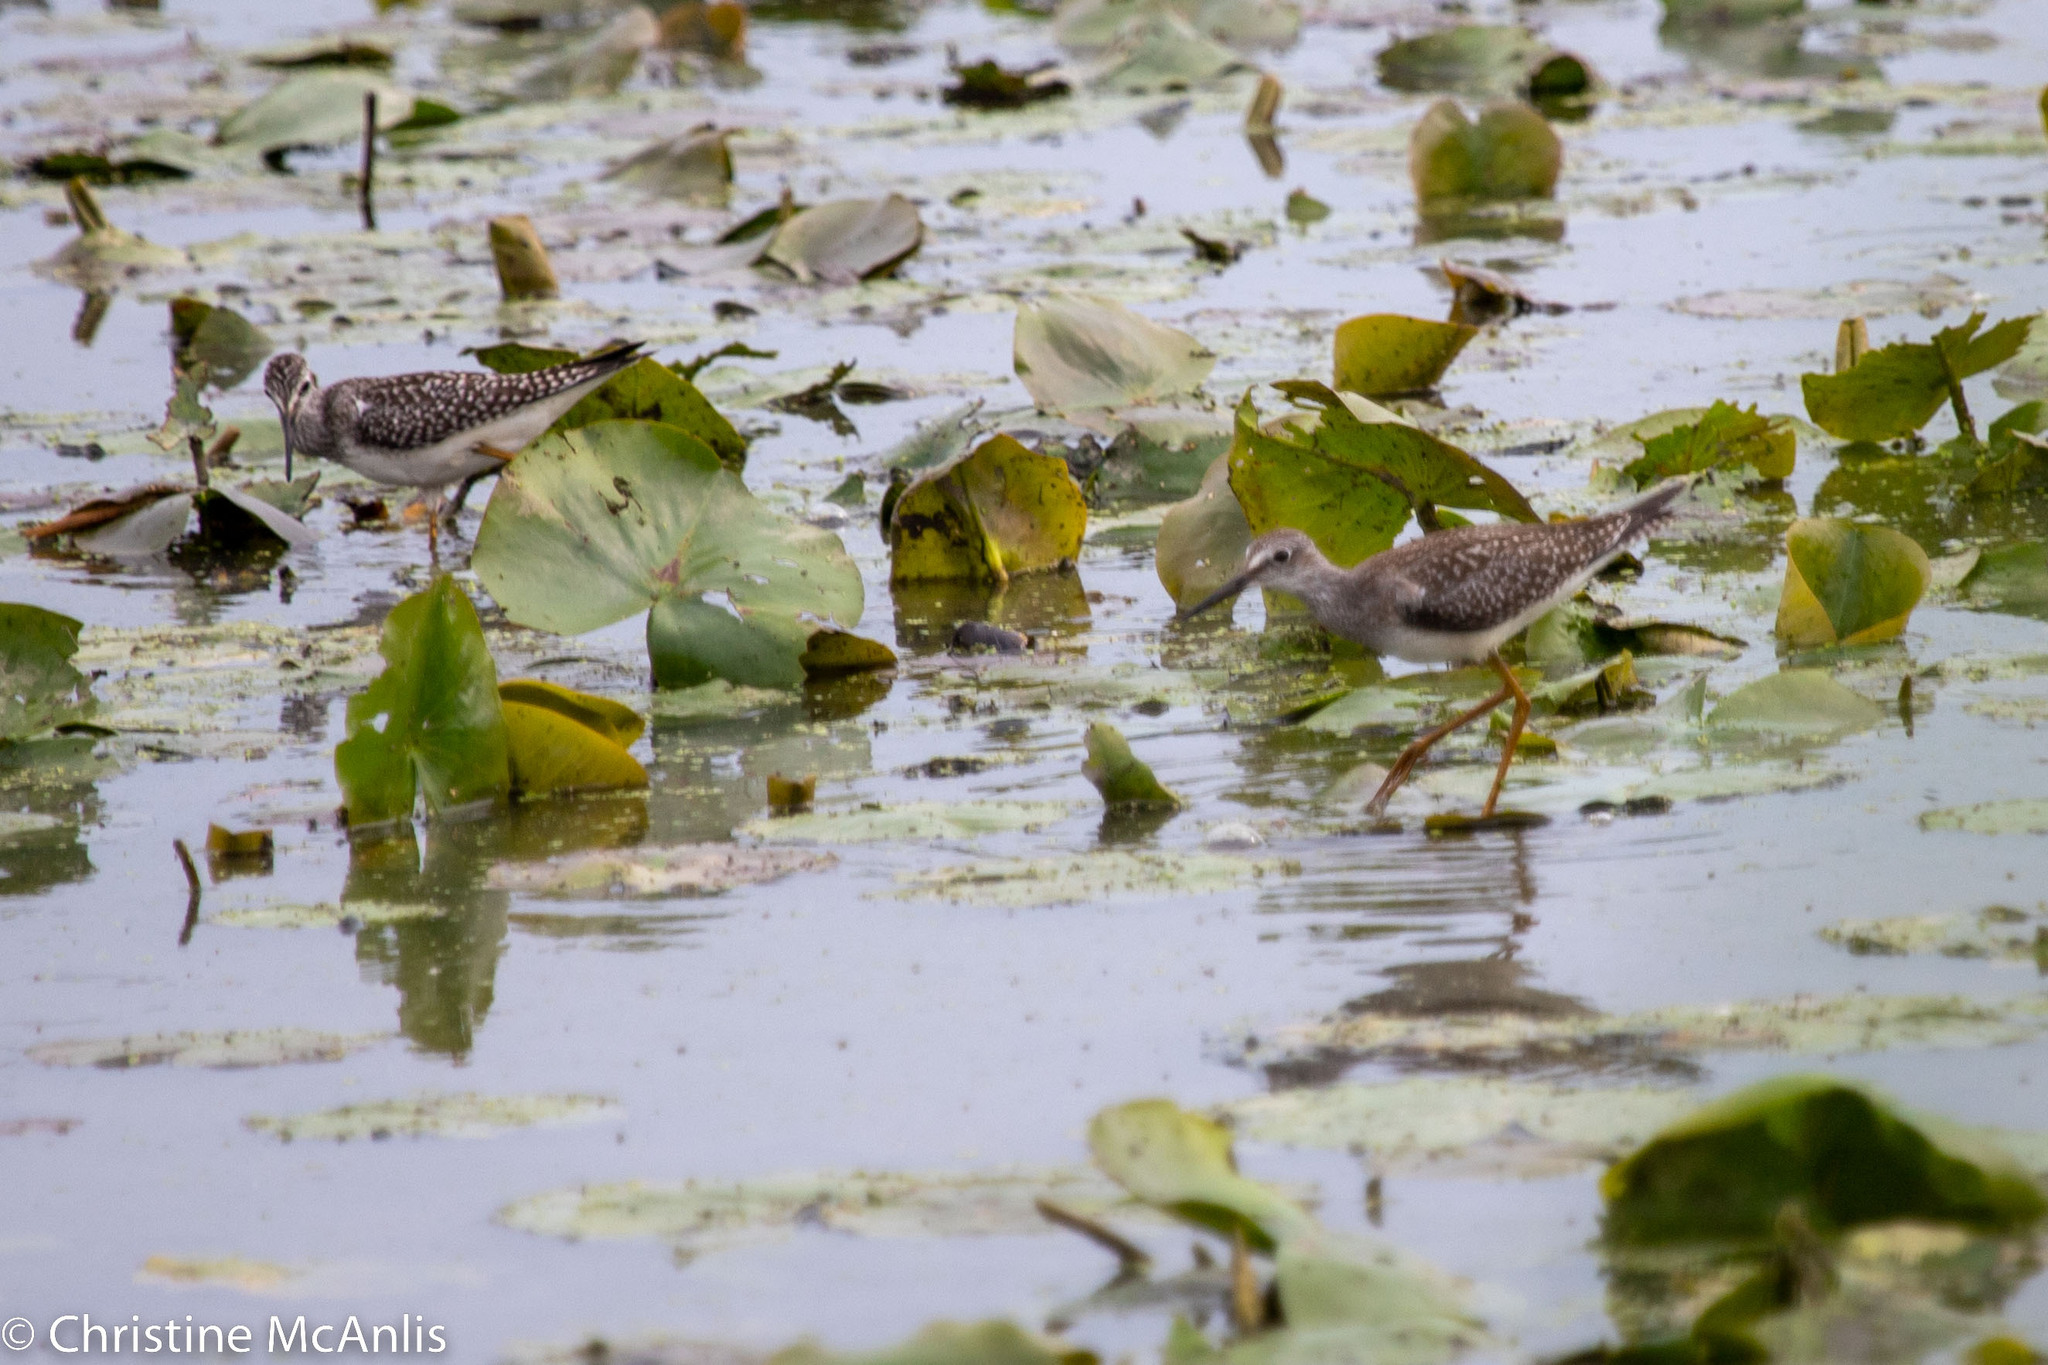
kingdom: Animalia
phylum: Chordata
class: Aves
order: Charadriiformes
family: Scolopacidae
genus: Tringa
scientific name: Tringa flavipes
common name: Lesser yellowlegs
